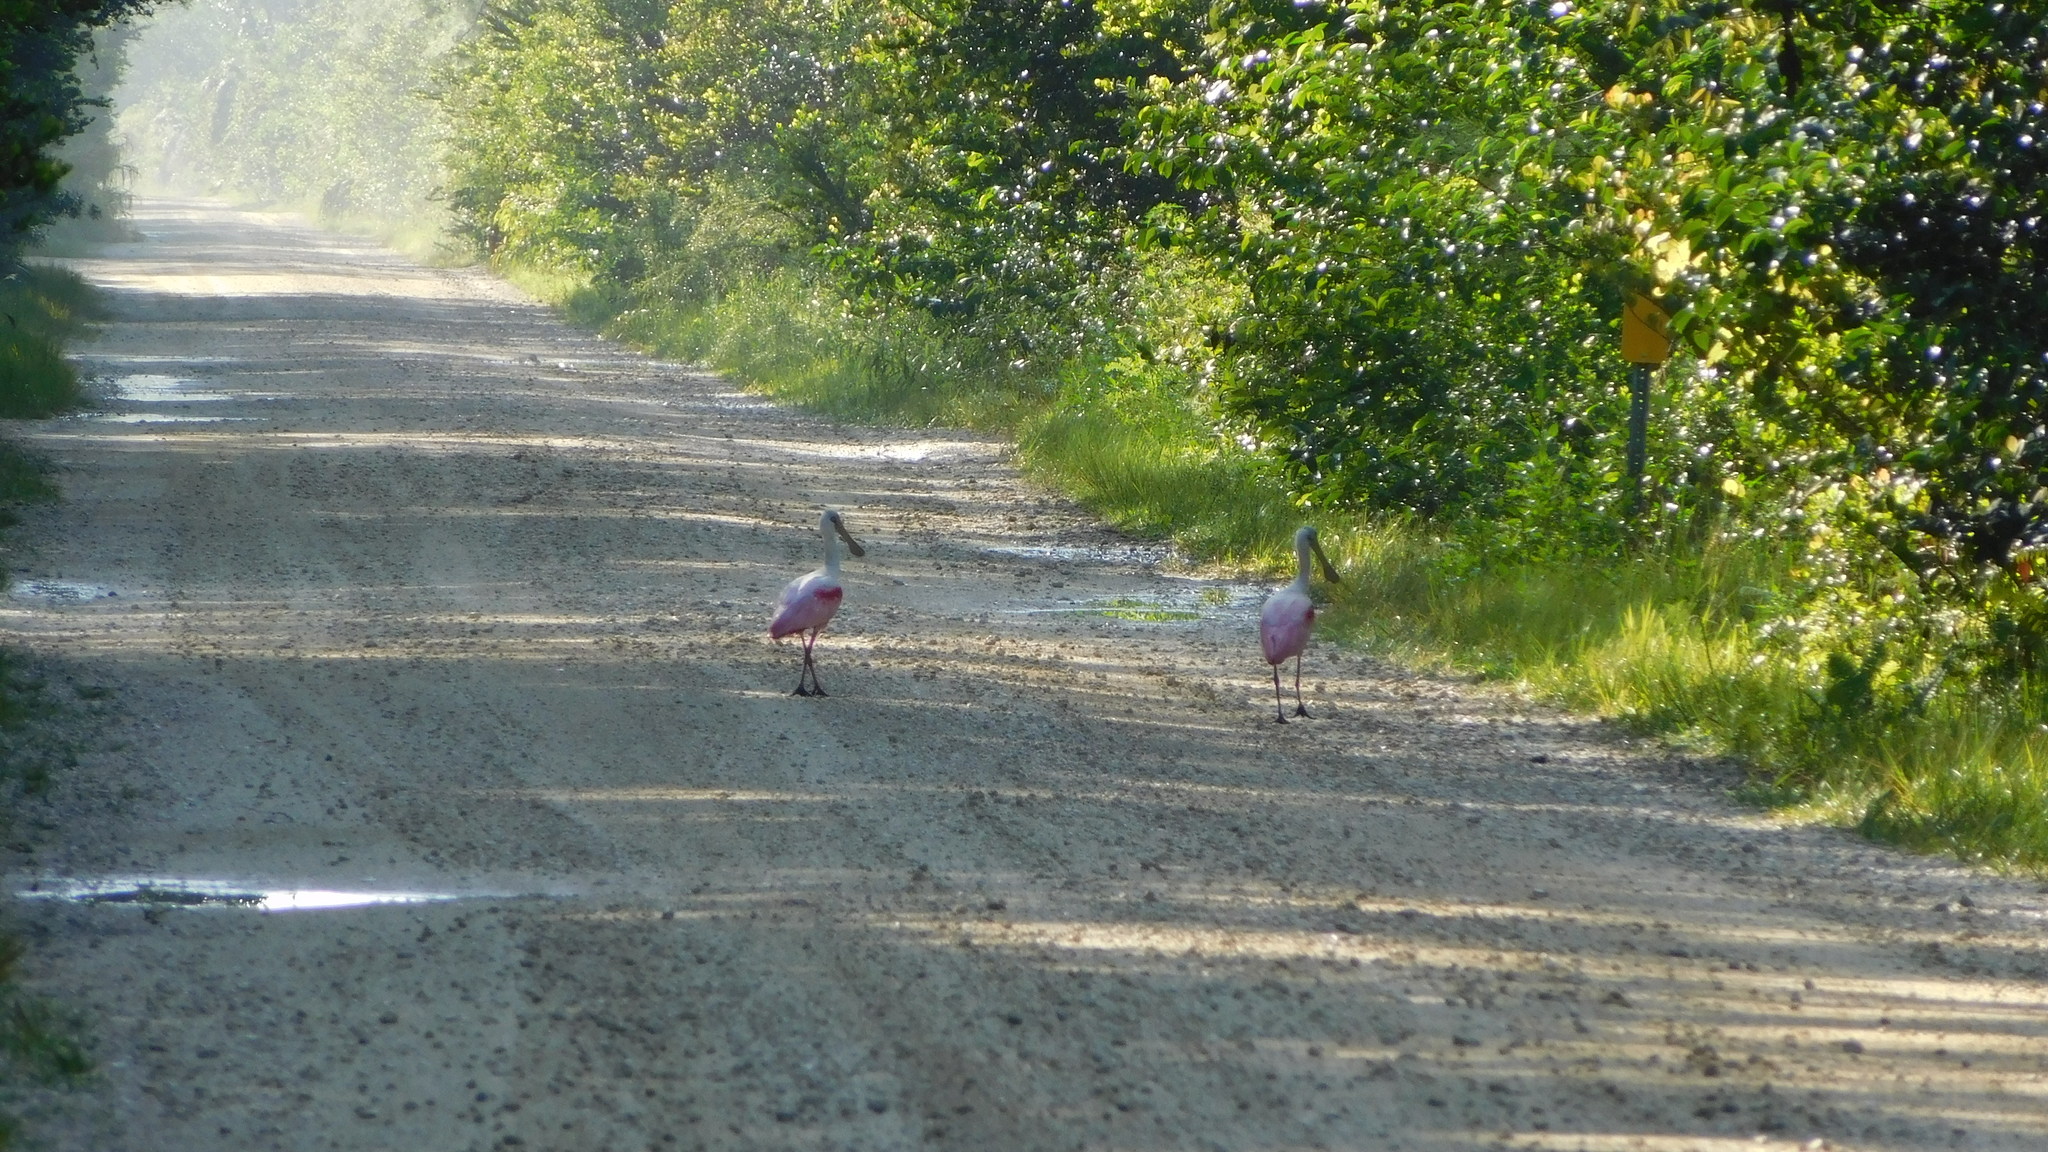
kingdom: Animalia
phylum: Chordata
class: Aves
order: Pelecaniformes
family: Threskiornithidae
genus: Platalea
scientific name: Platalea ajaja
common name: Roseate spoonbill
